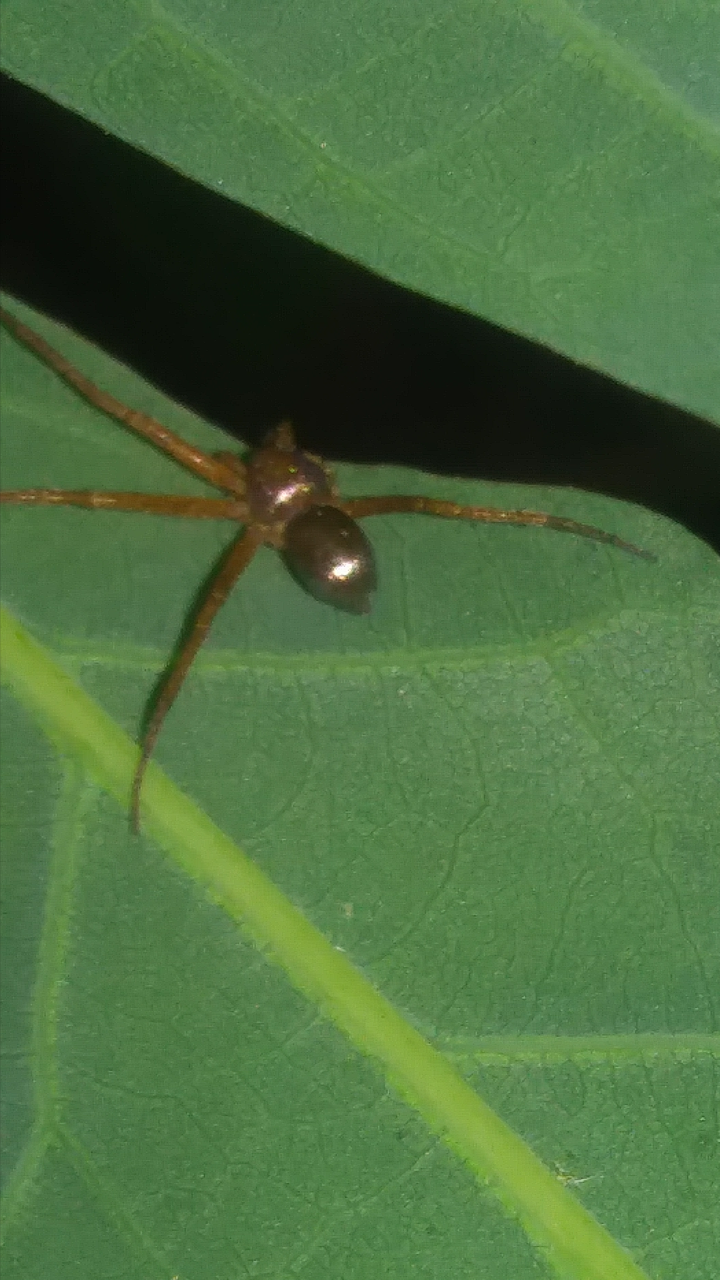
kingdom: Animalia
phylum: Arthropoda
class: Arachnida
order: Araneae
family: Philodromidae
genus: Philodromus
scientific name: Philodromus marxi
